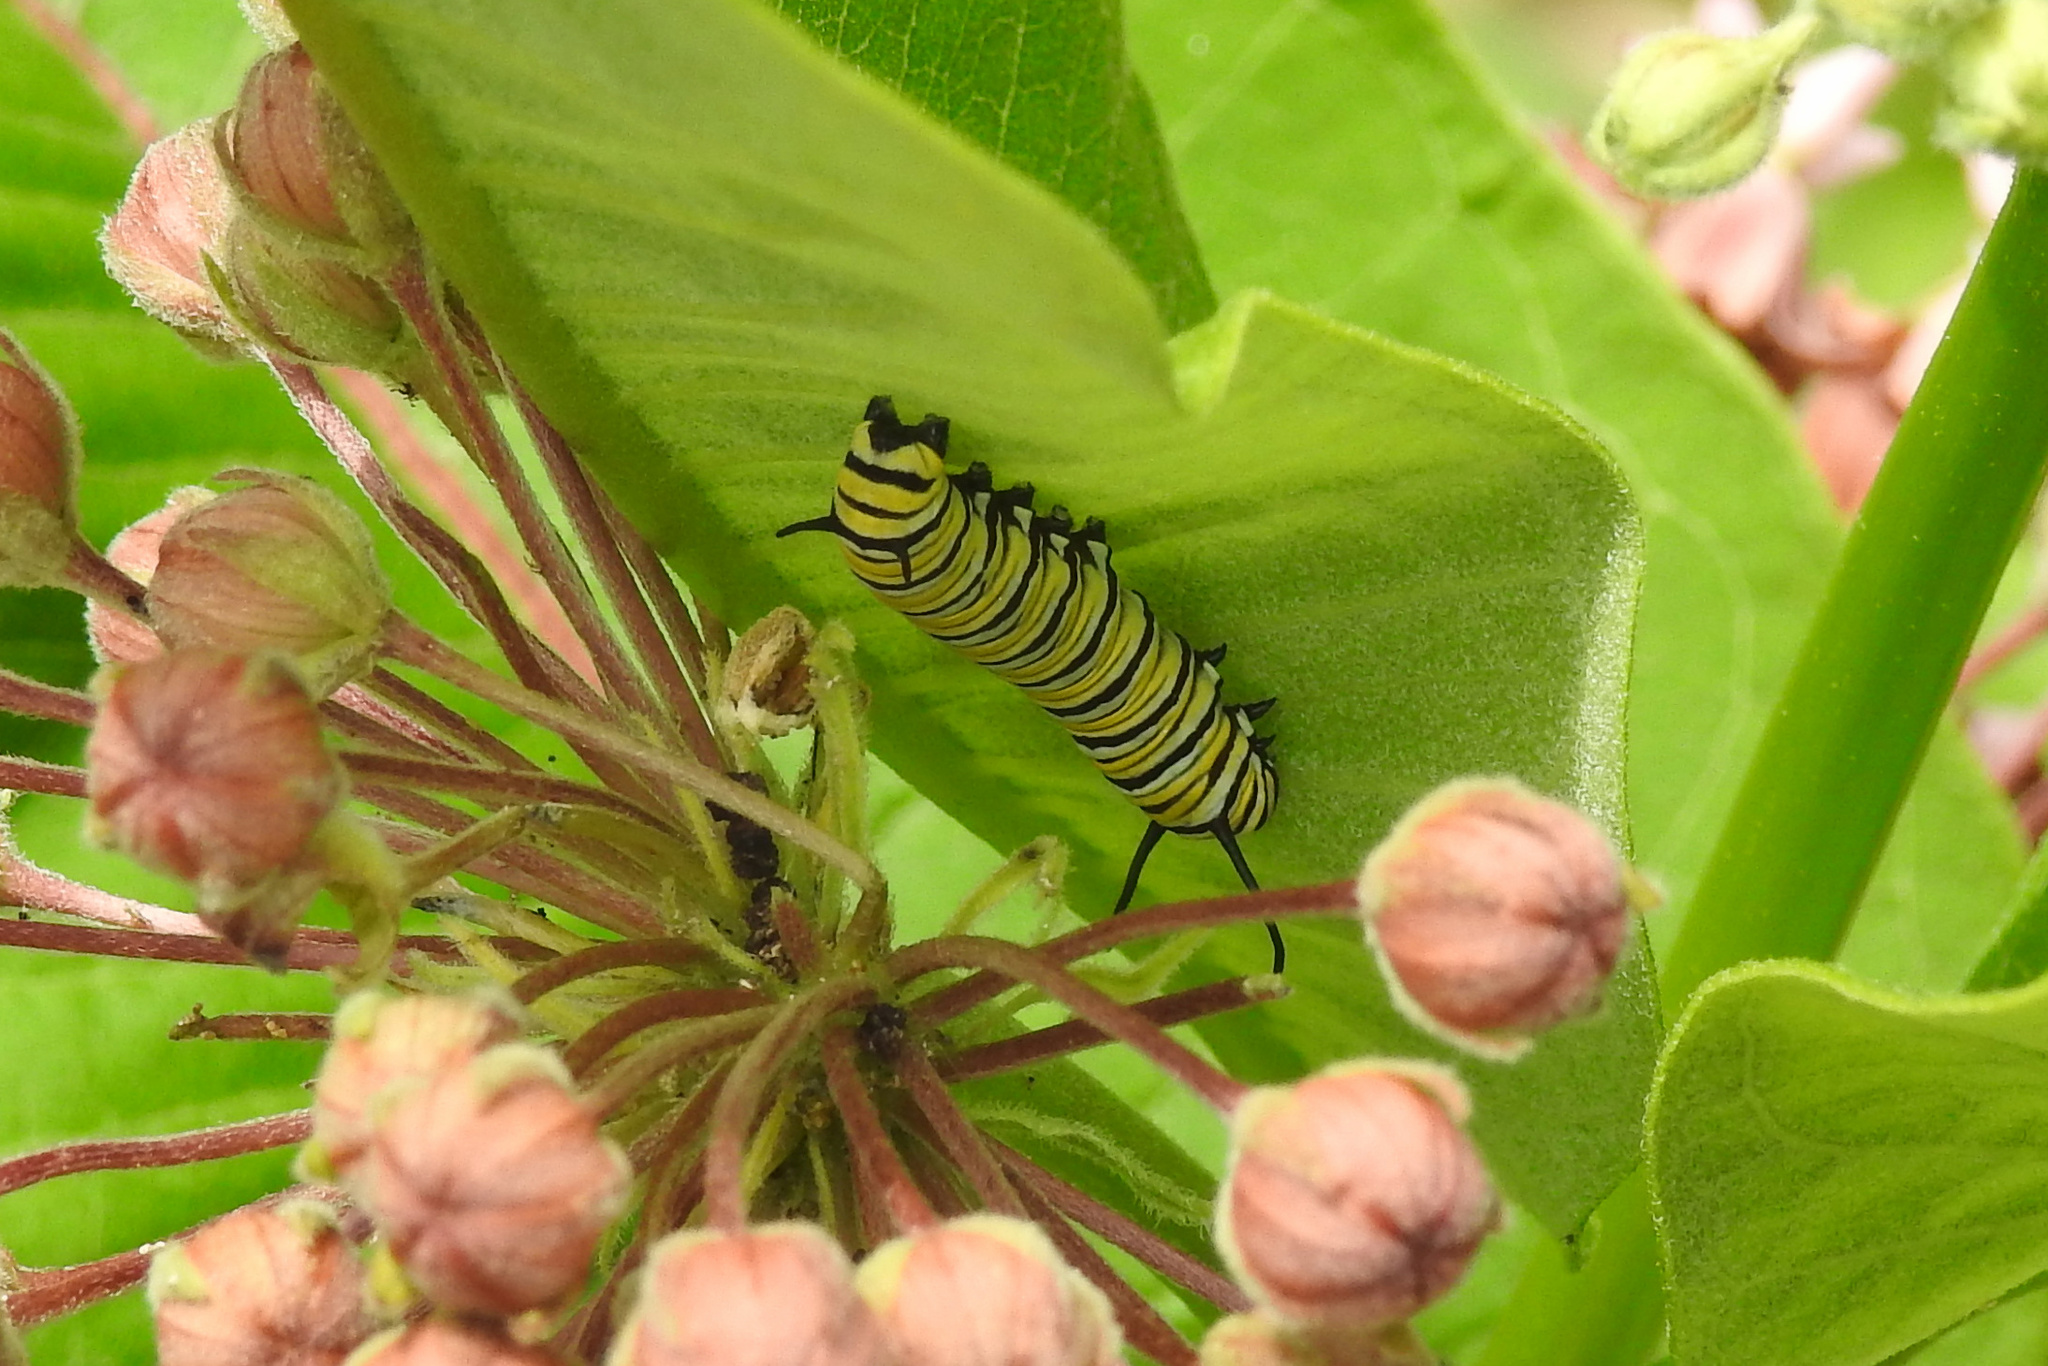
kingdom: Animalia
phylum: Arthropoda
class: Insecta
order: Lepidoptera
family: Nymphalidae
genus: Danaus
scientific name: Danaus plexippus
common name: Monarch
